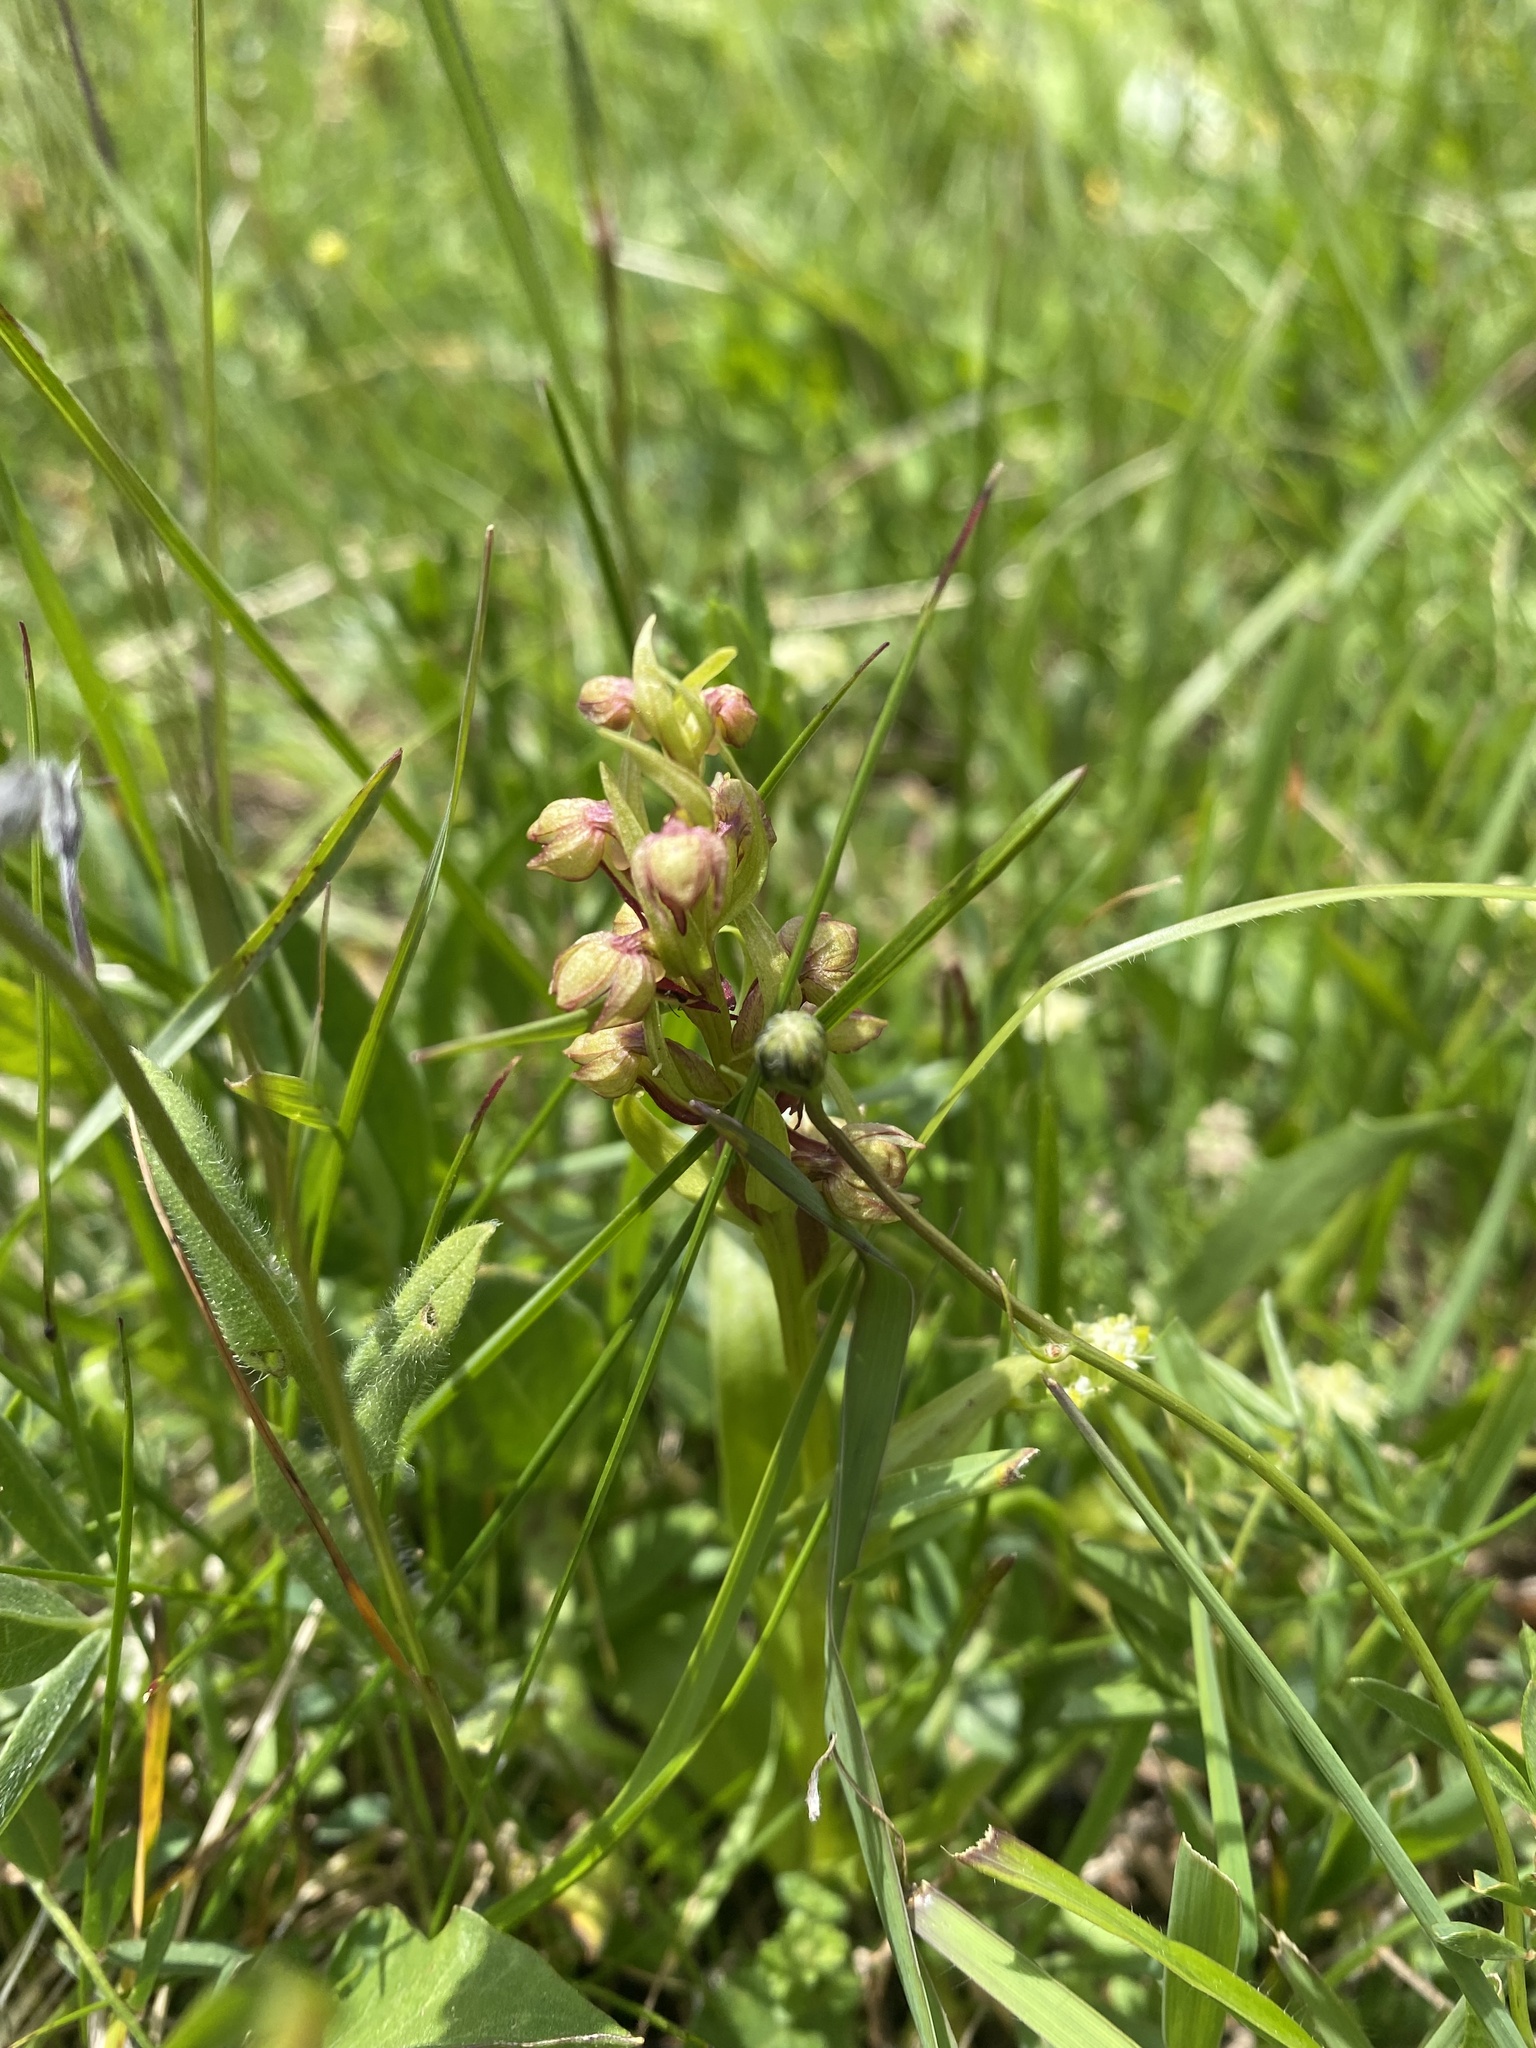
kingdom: Plantae
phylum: Tracheophyta
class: Liliopsida
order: Asparagales
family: Orchidaceae
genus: Dactylorhiza
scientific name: Dactylorhiza viridis
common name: Longbract frog orchid
